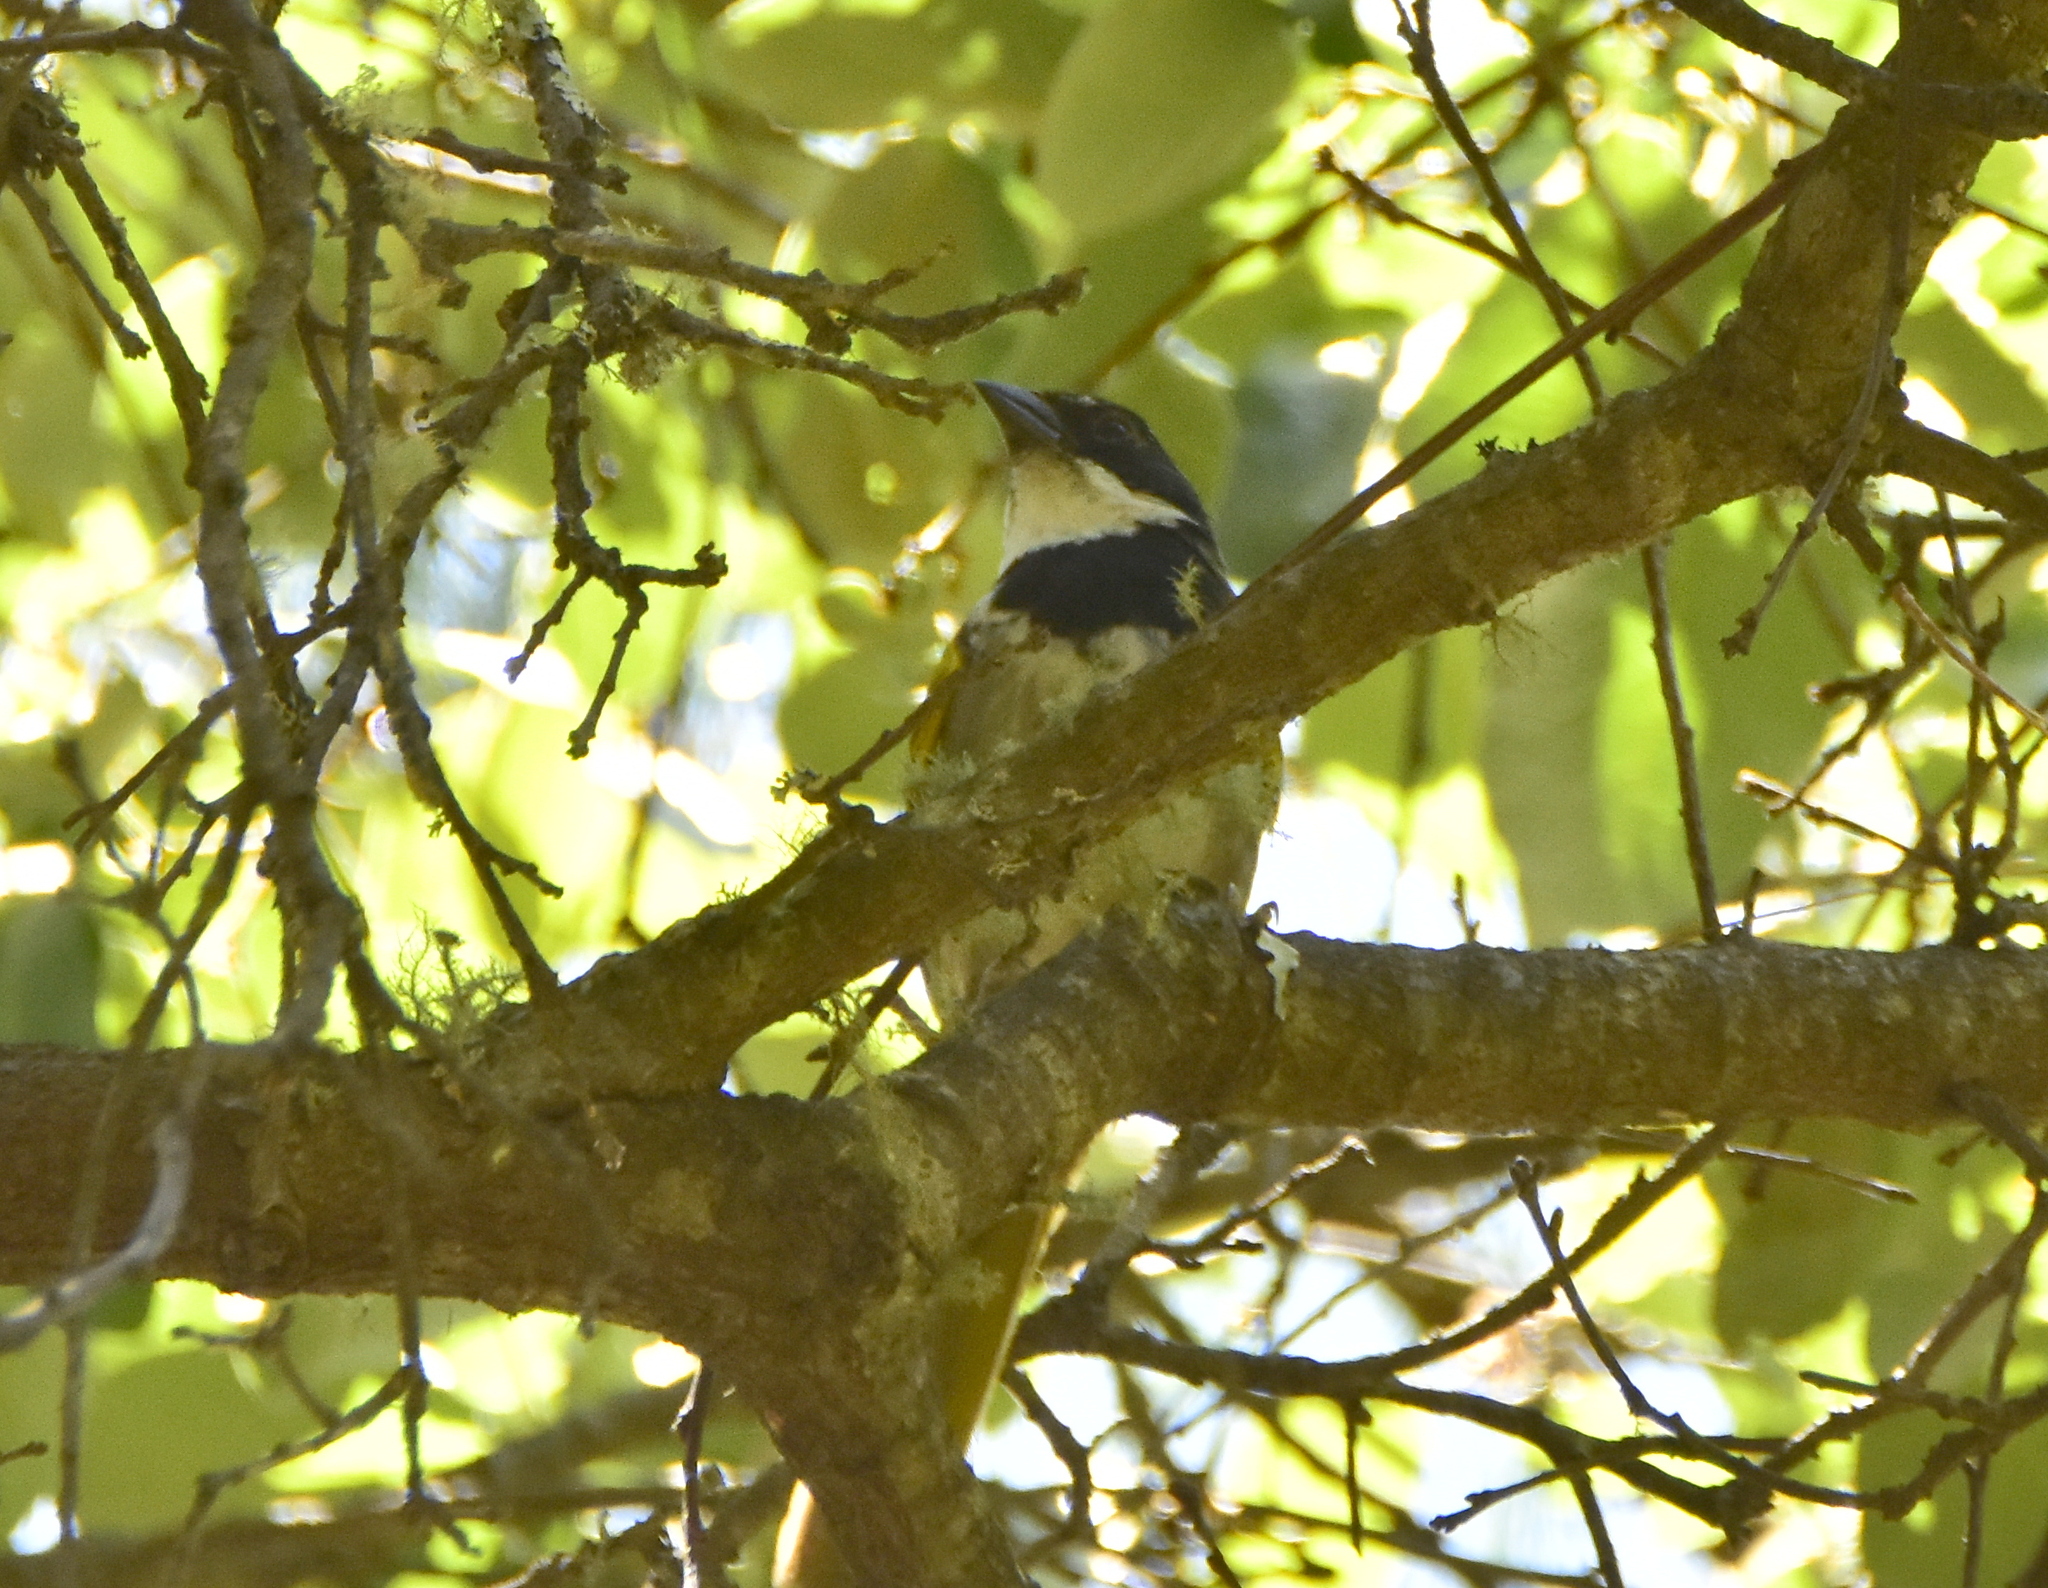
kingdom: Animalia
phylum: Chordata
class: Aves
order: Passeriformes
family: Passerellidae
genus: Pipilo
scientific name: Pipilo ocai
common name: Collared towhee
